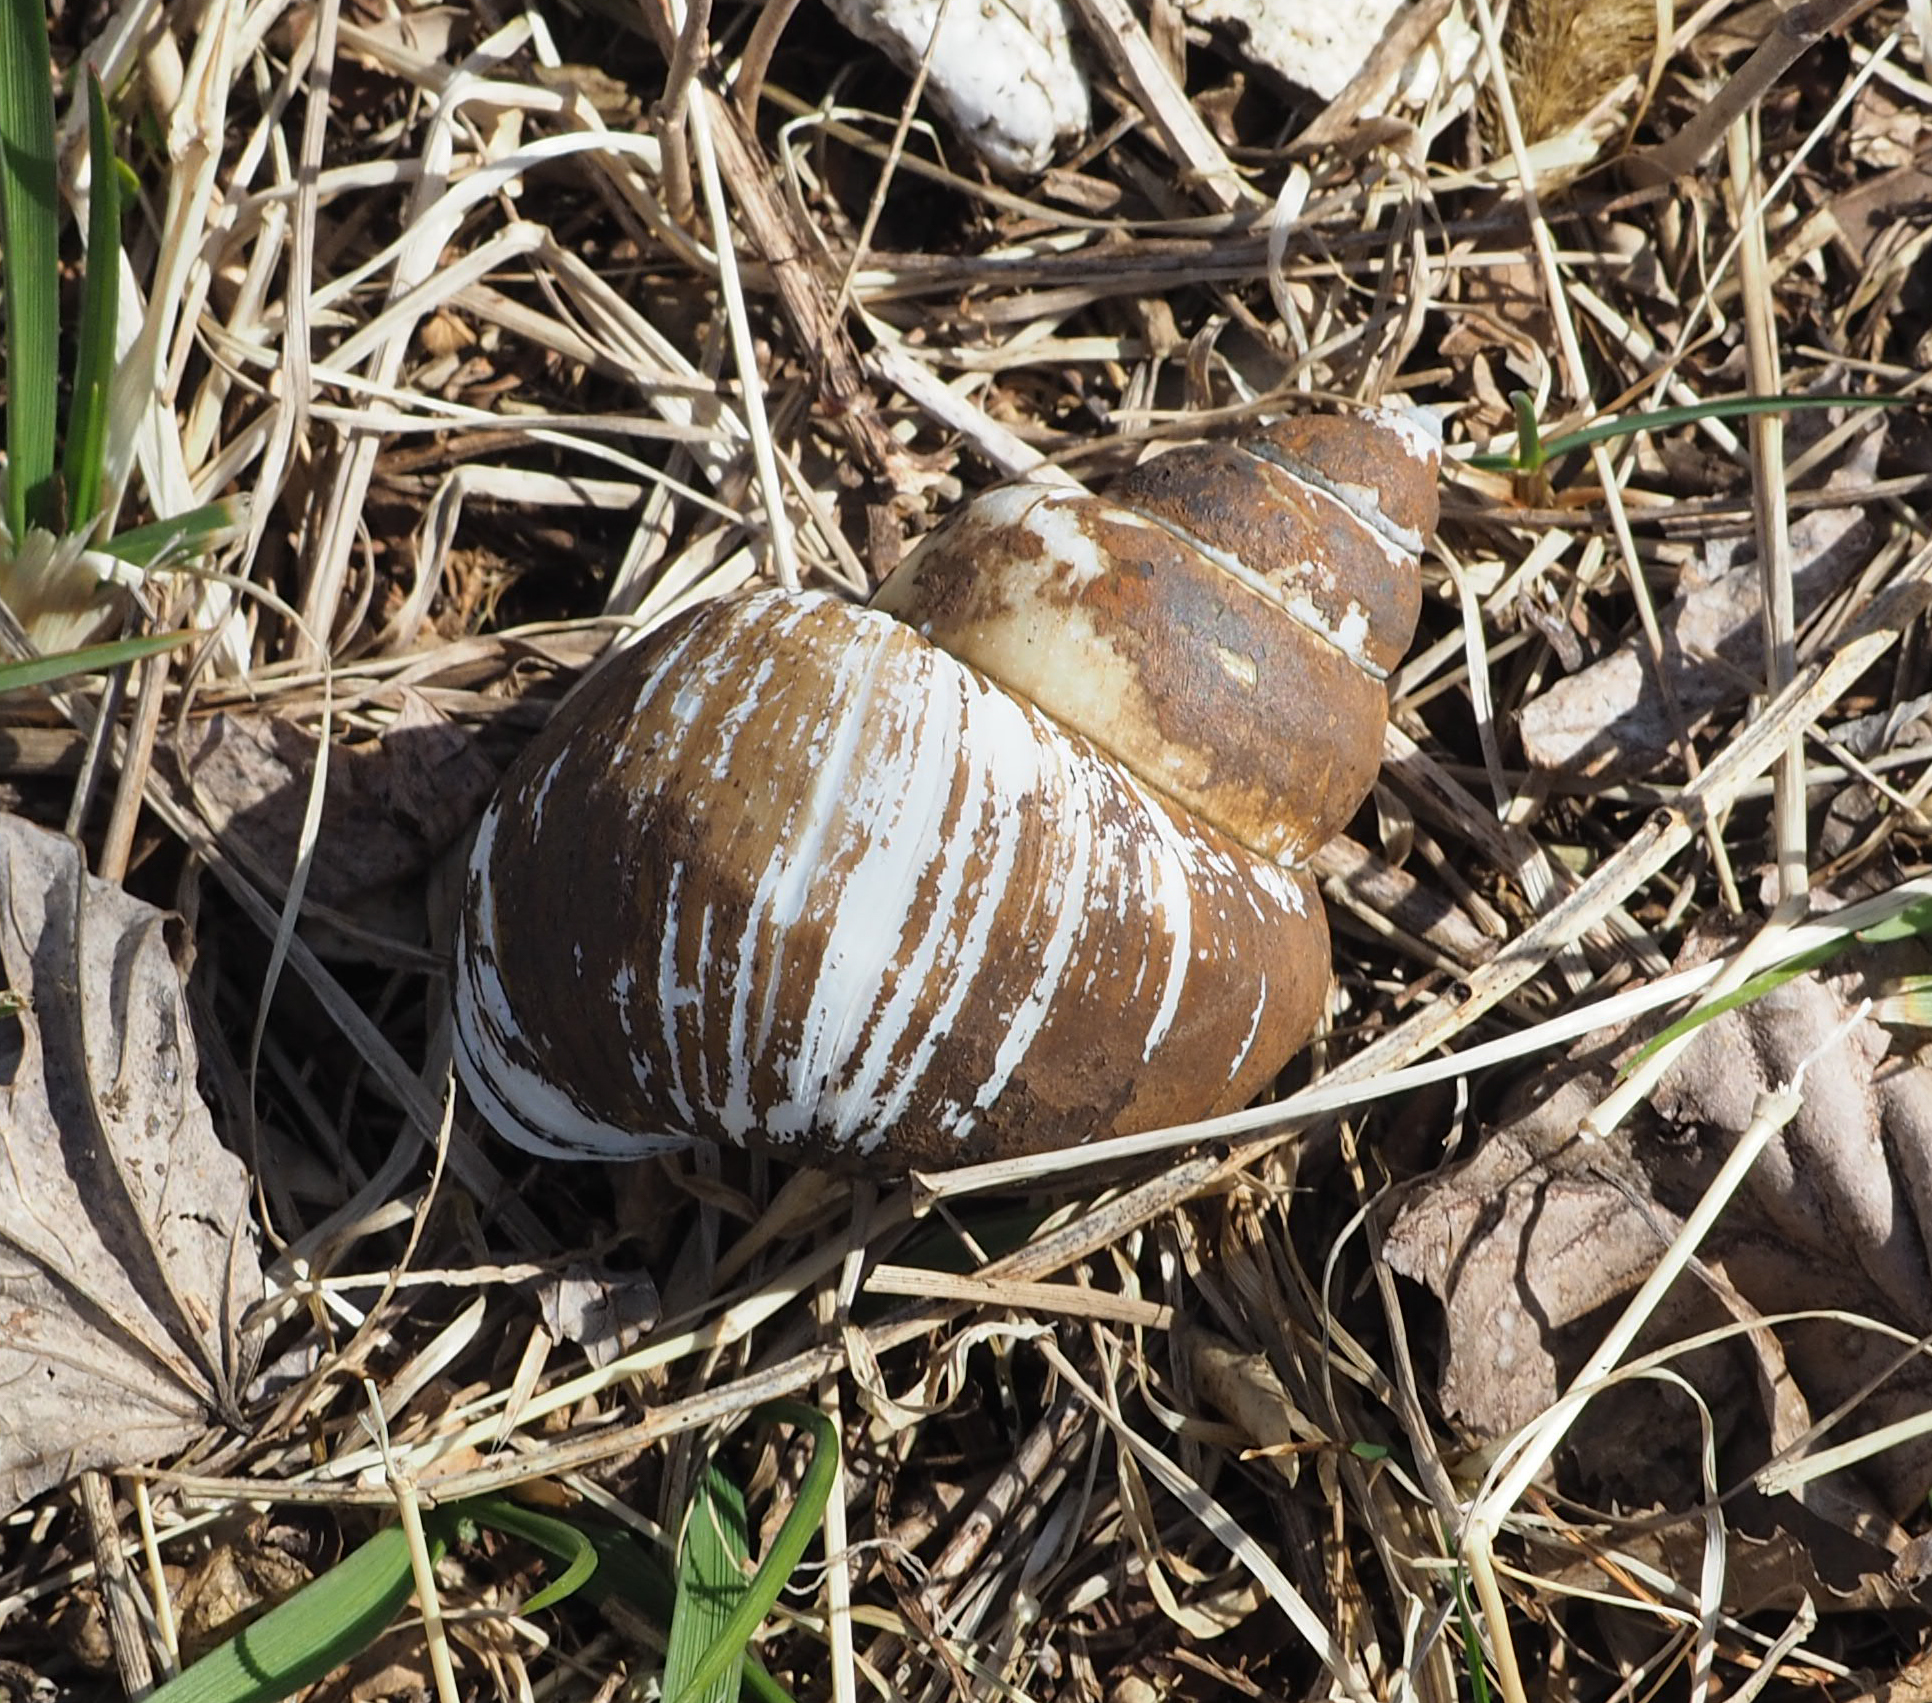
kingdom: Animalia
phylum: Mollusca
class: Gastropoda
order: Architaenioglossa
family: Viviparidae
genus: Cipangopaludina
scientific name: Cipangopaludina chinensis
